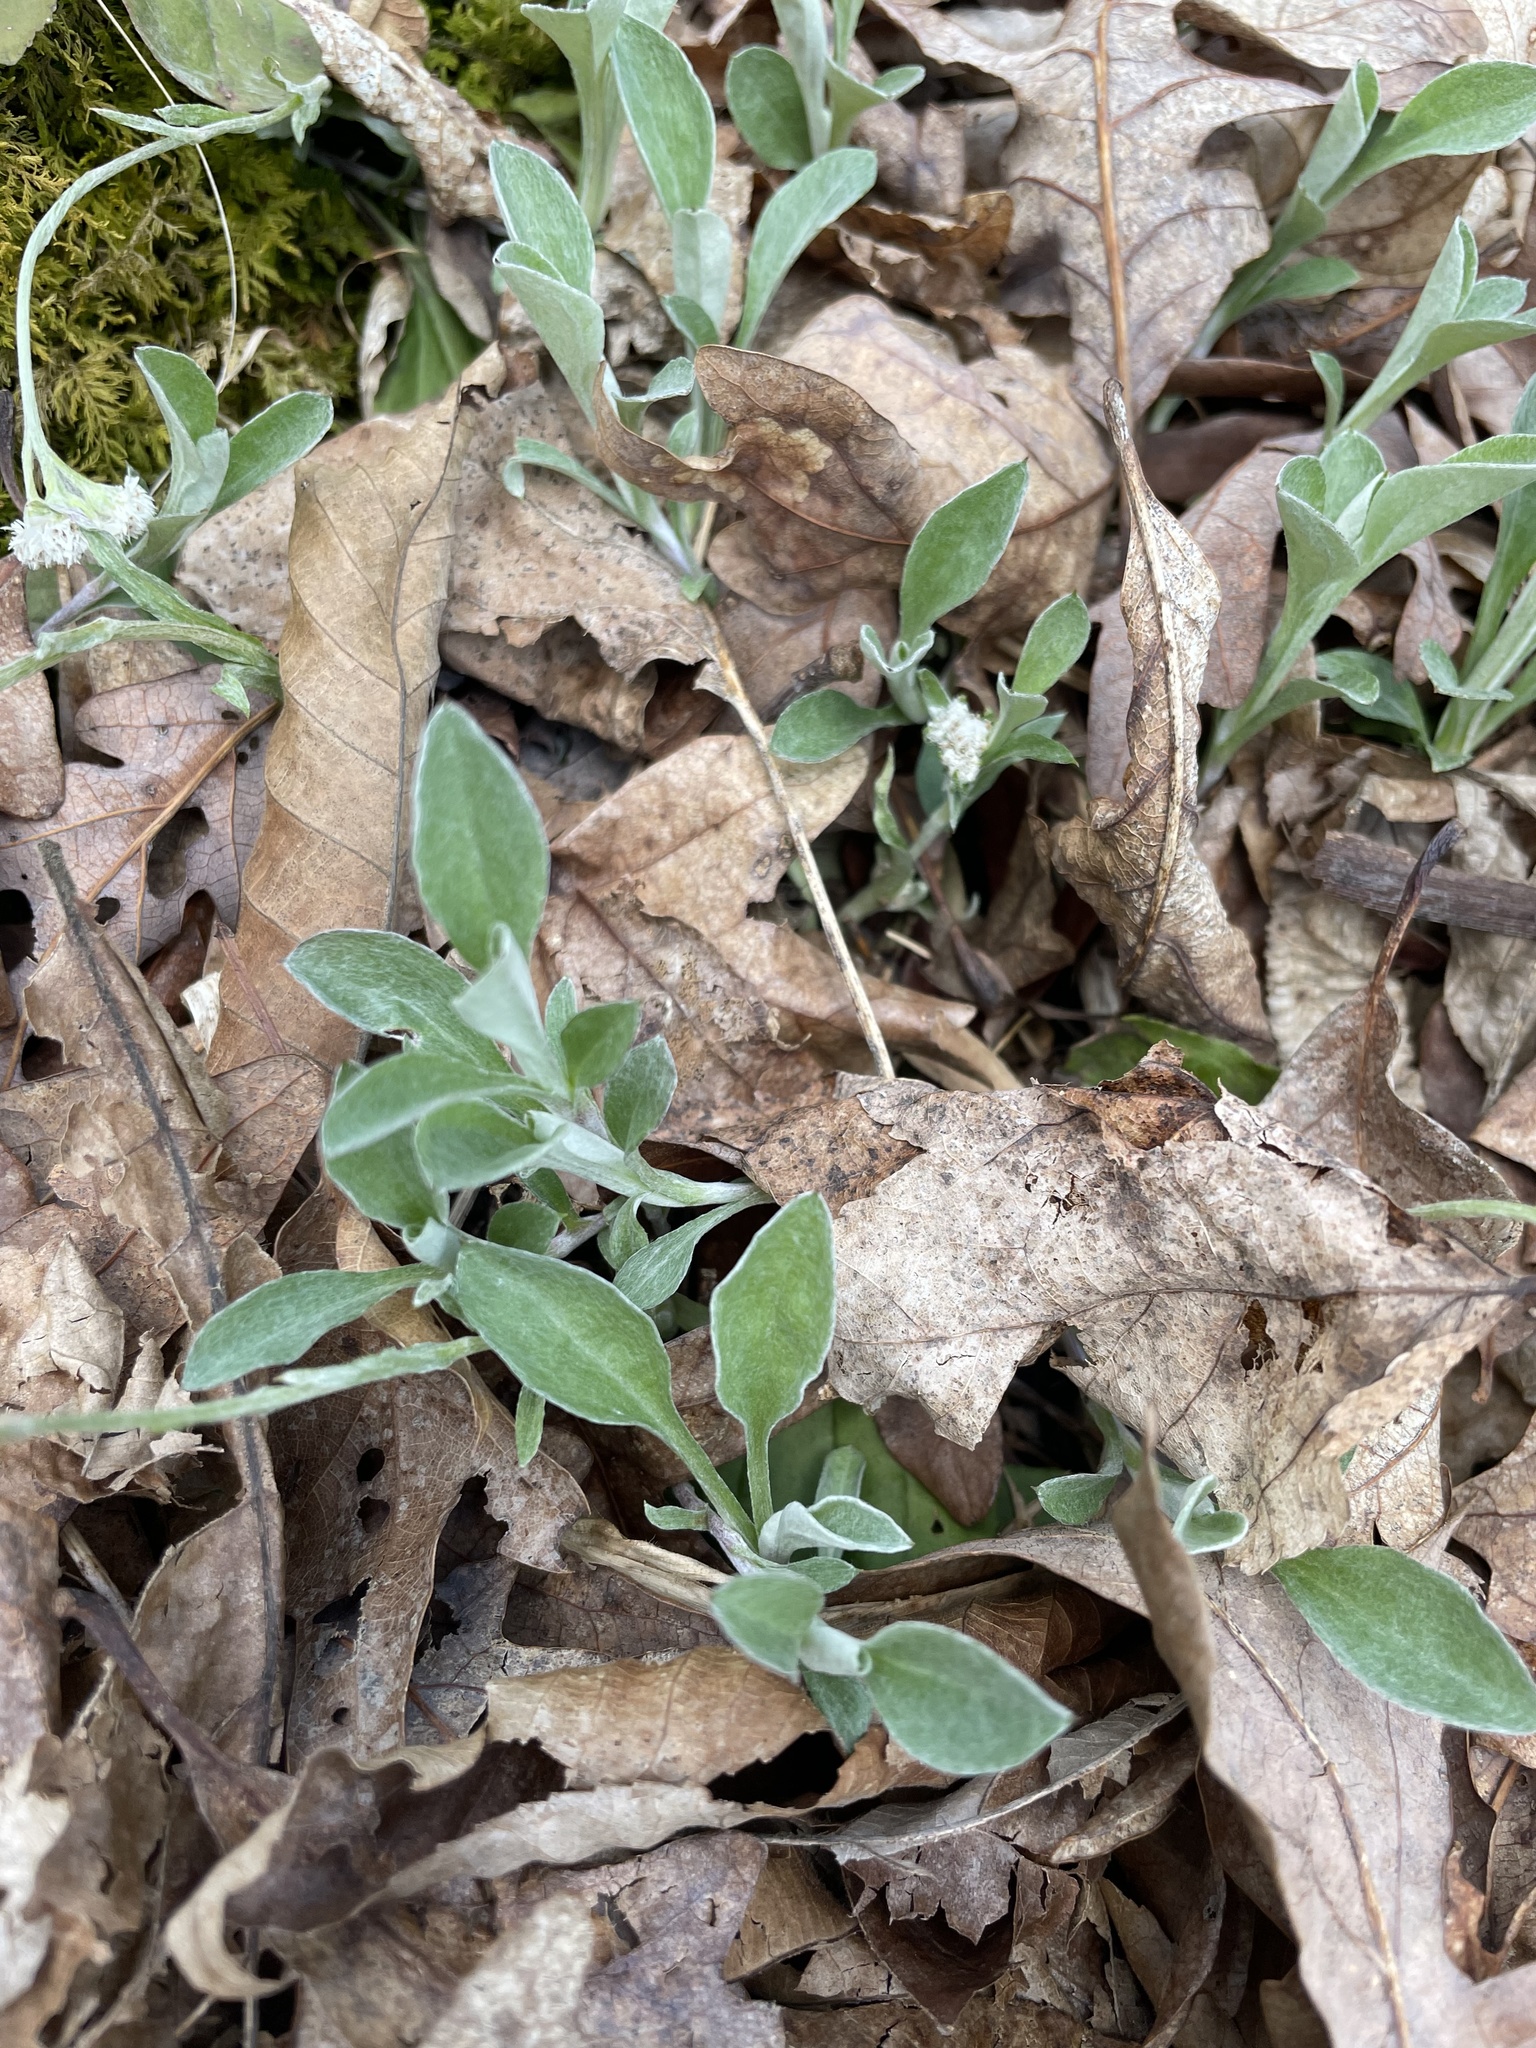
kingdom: Plantae
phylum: Tracheophyta
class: Magnoliopsida
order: Asterales
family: Asteraceae
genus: Antennaria
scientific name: Antennaria plantaginifolia
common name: Plantain-leaved pussytoes
